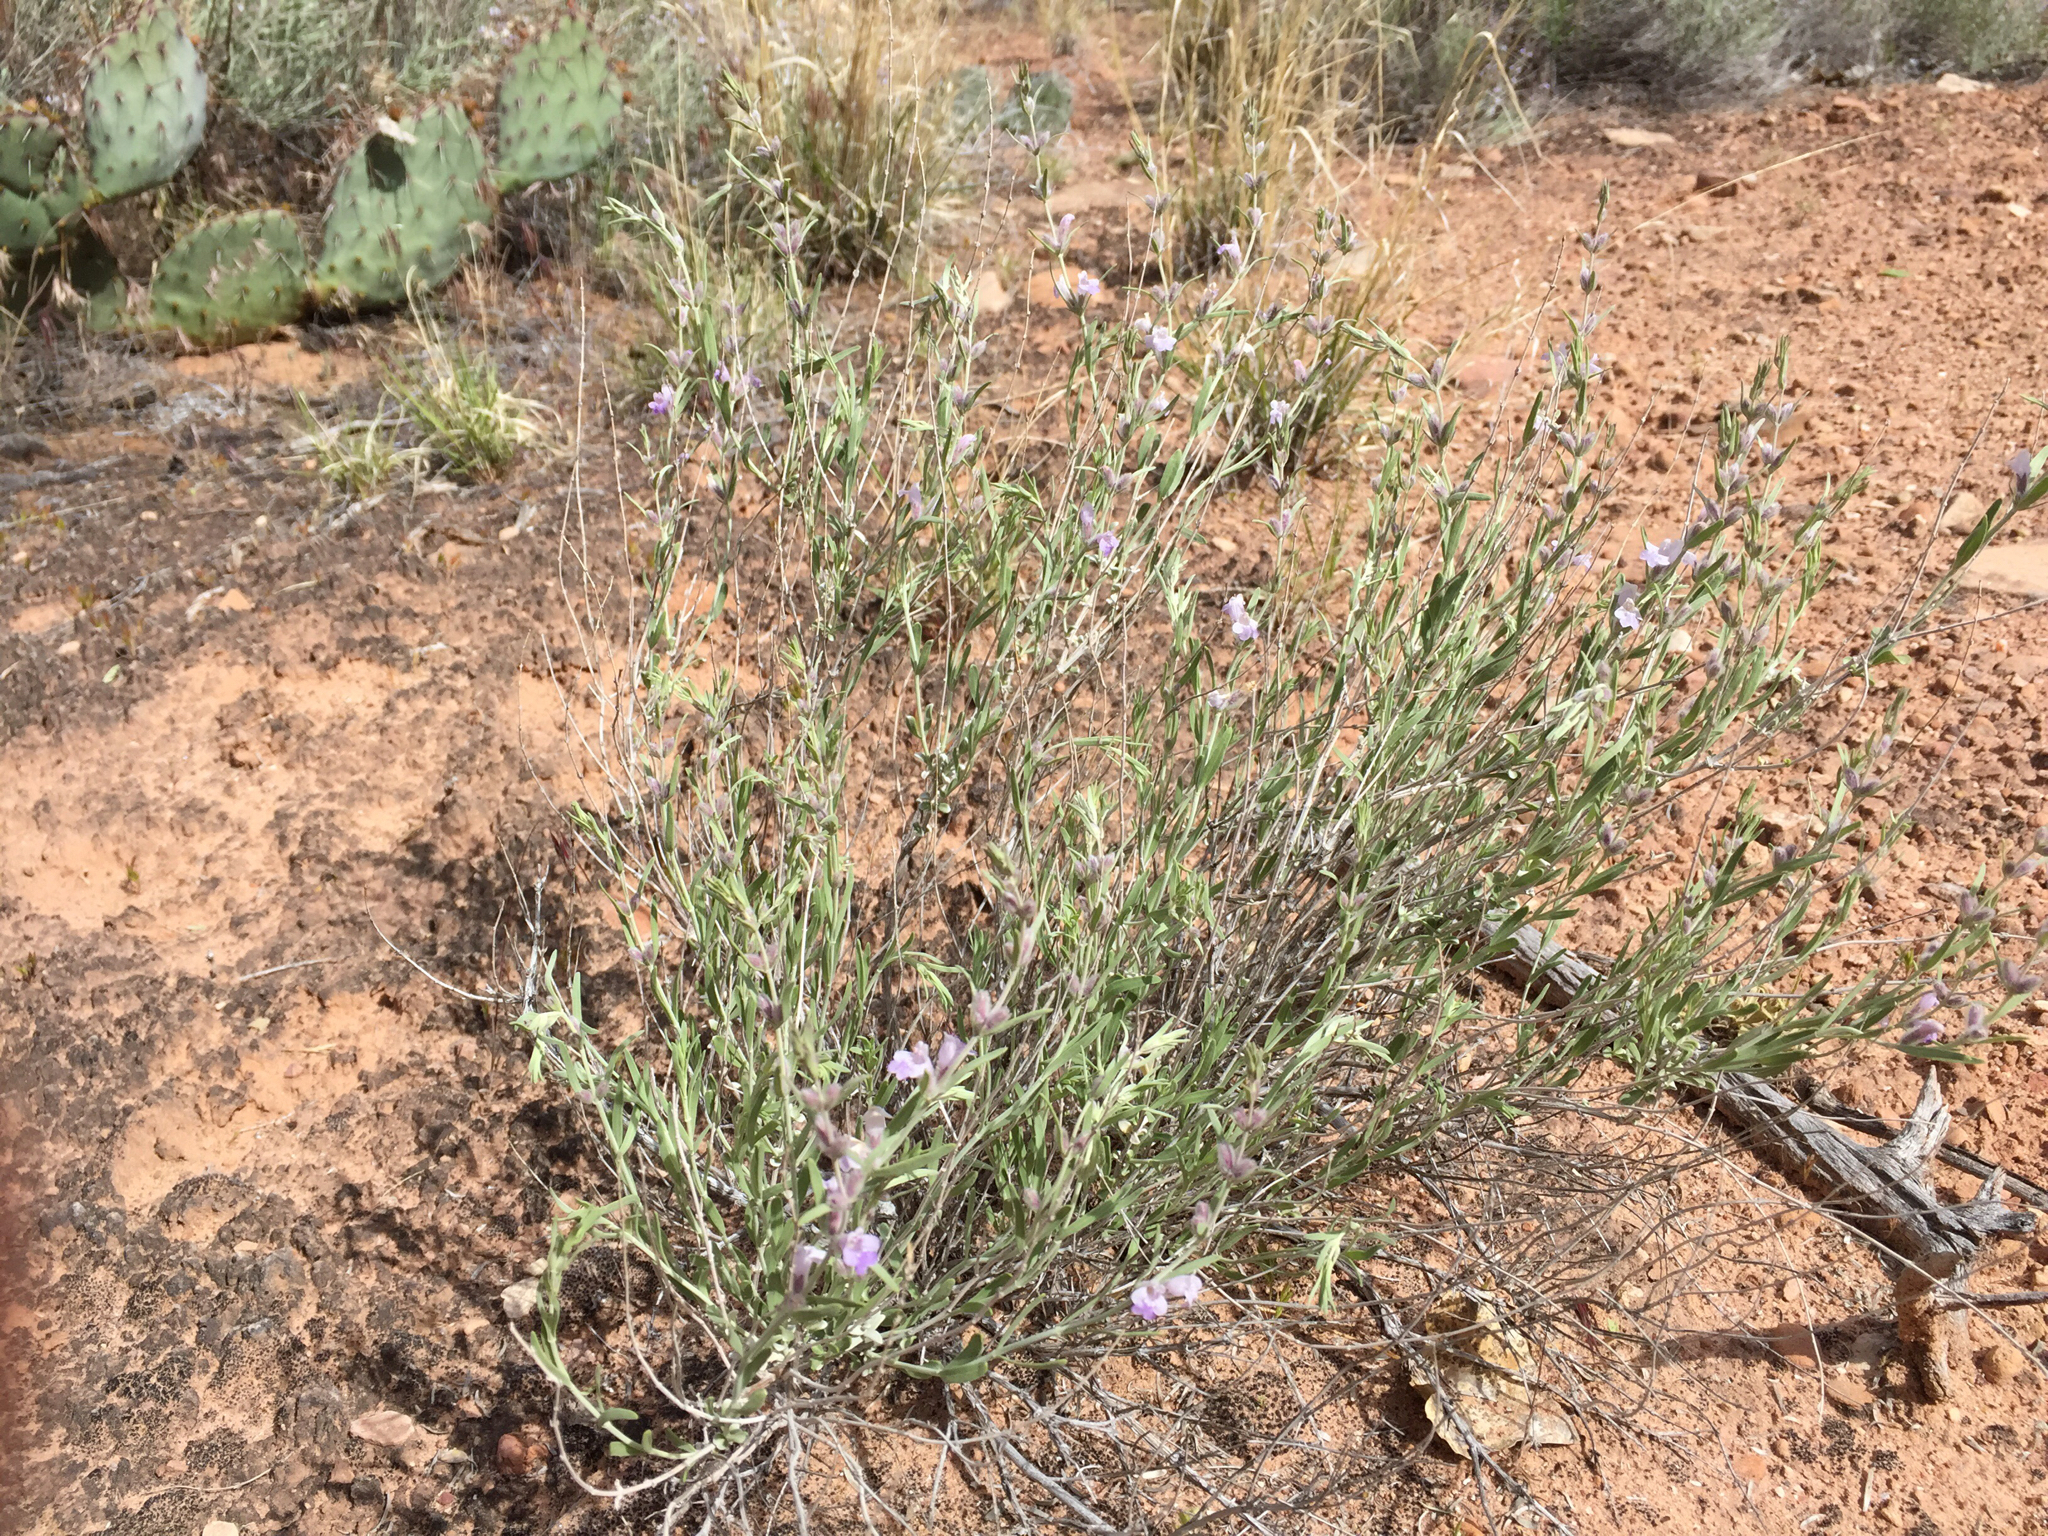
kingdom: Plantae
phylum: Tracheophyta
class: Magnoliopsida
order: Lamiales
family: Lamiaceae
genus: Poliomintha
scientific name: Poliomintha incana
